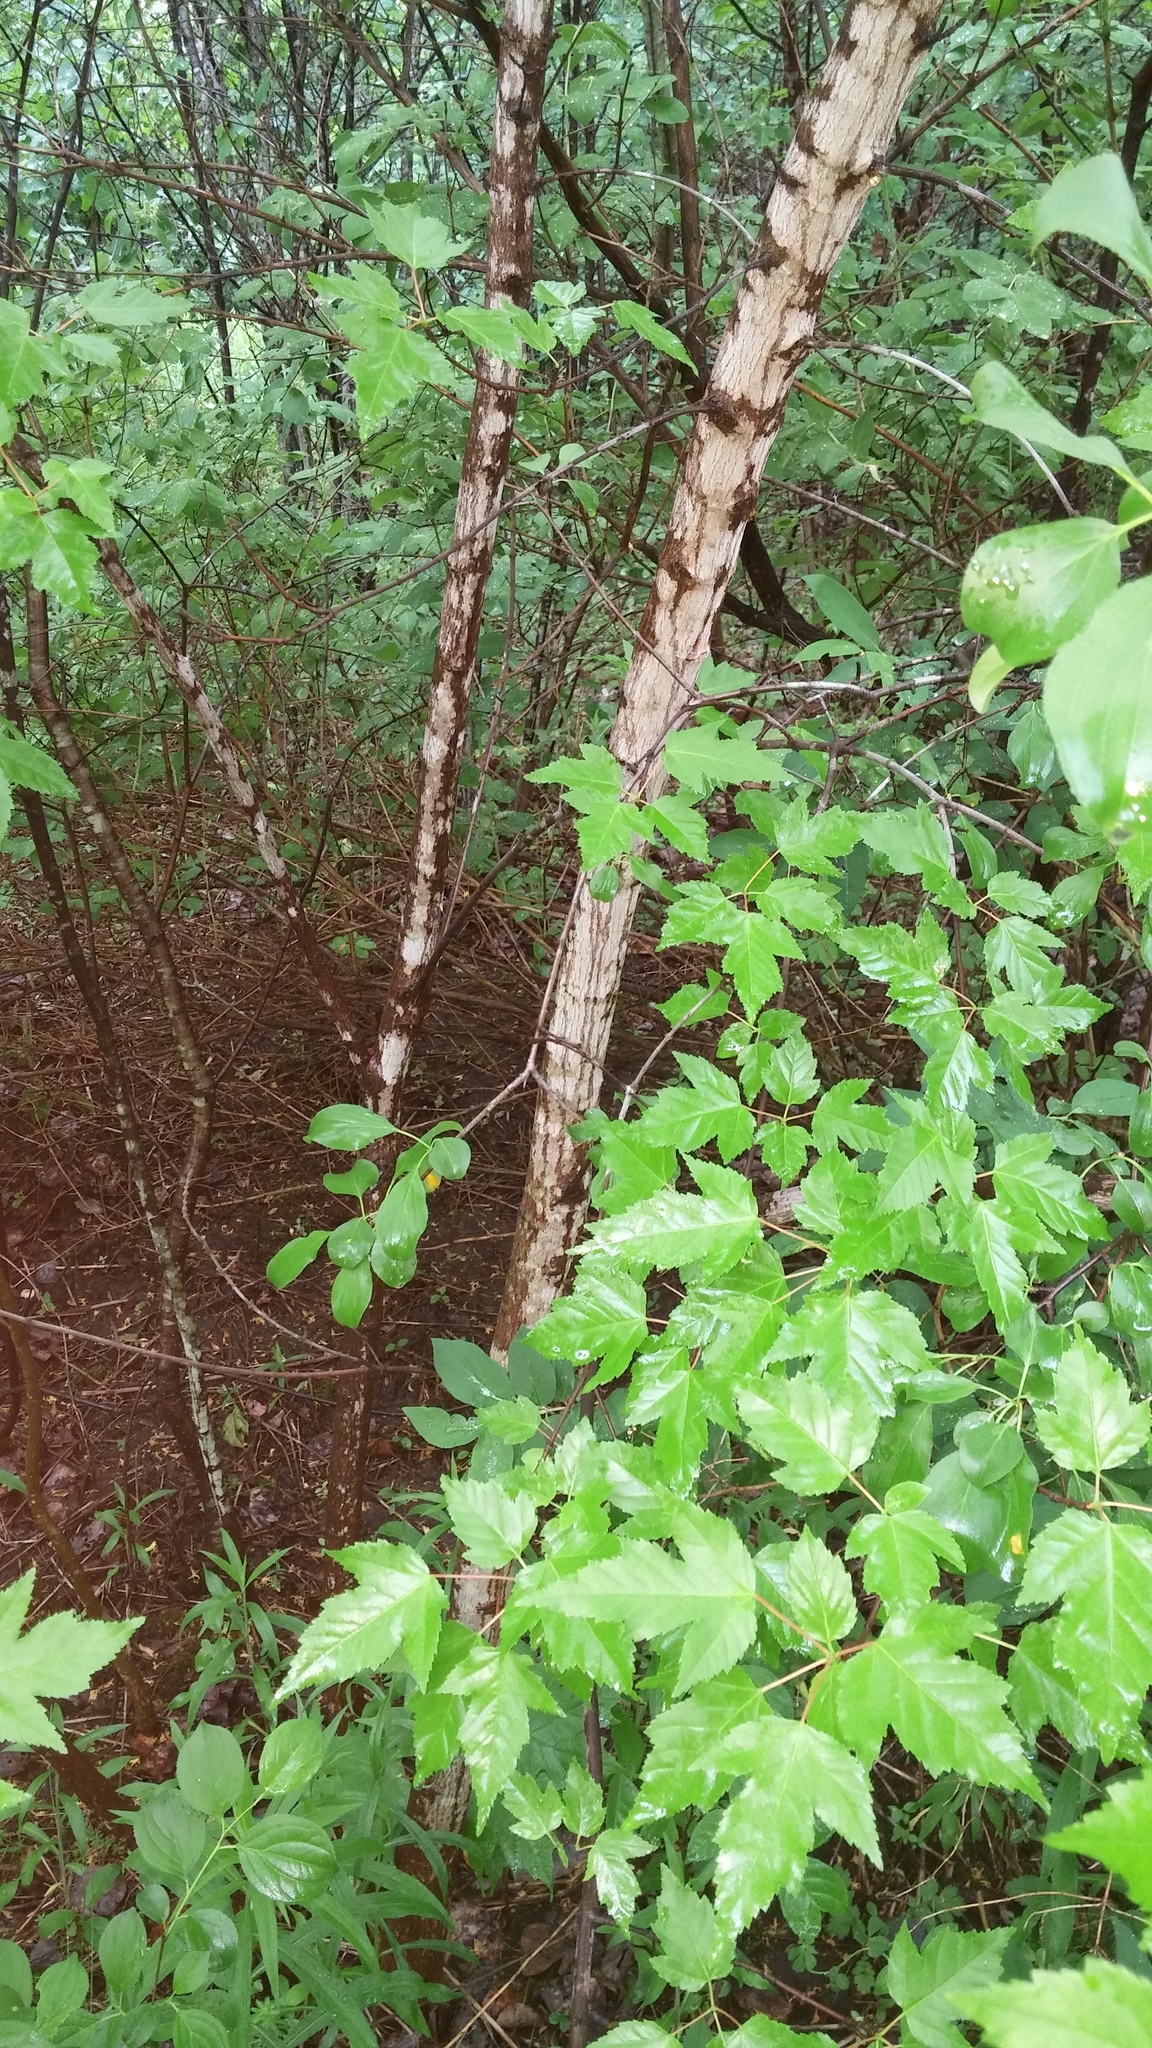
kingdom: Plantae
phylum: Tracheophyta
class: Magnoliopsida
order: Sapindales
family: Sapindaceae
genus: Acer
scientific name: Acer tataricum
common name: Tartar maple
